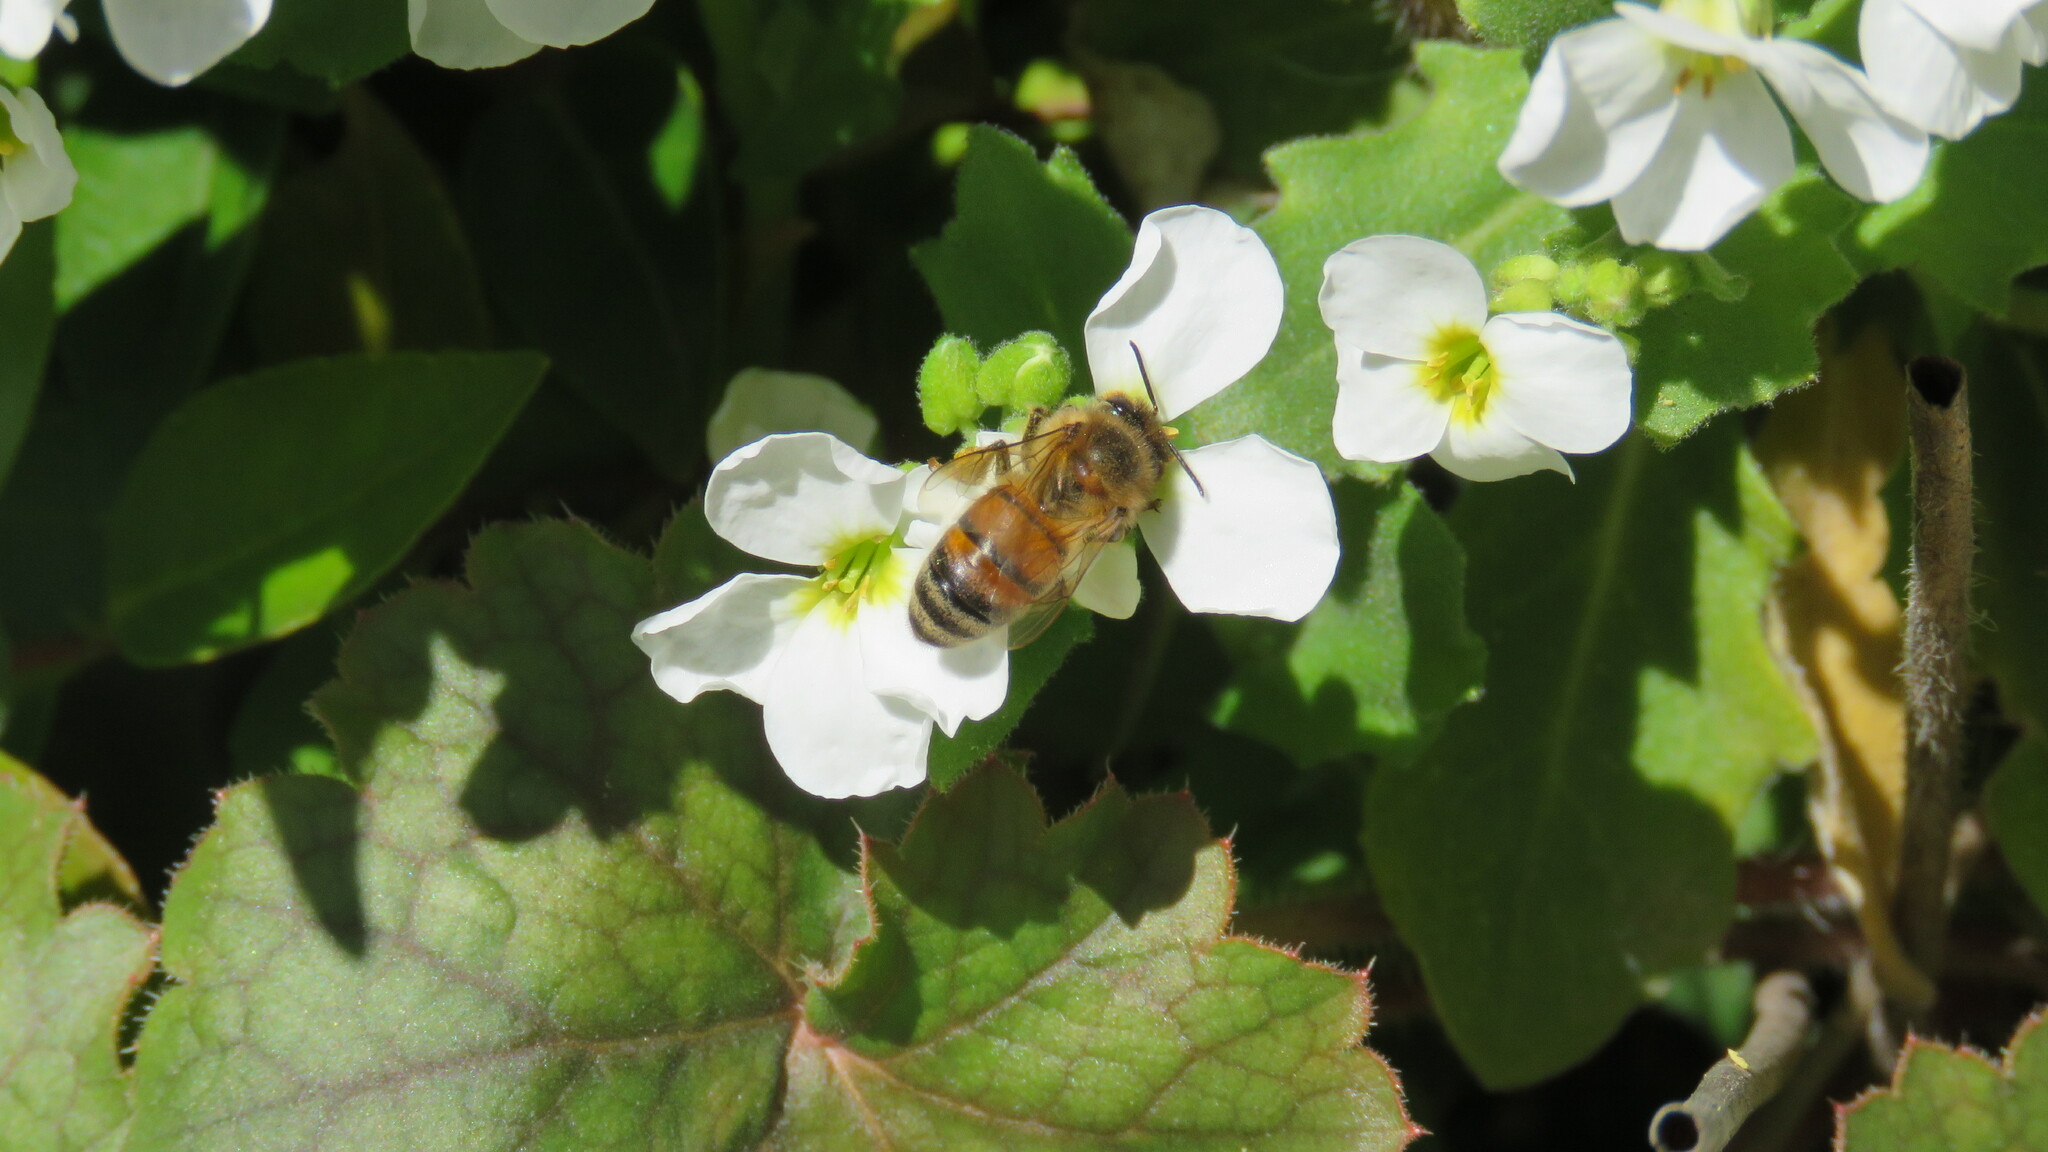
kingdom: Animalia
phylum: Arthropoda
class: Insecta
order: Hymenoptera
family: Apidae
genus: Apis
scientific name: Apis mellifera
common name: Honey bee
